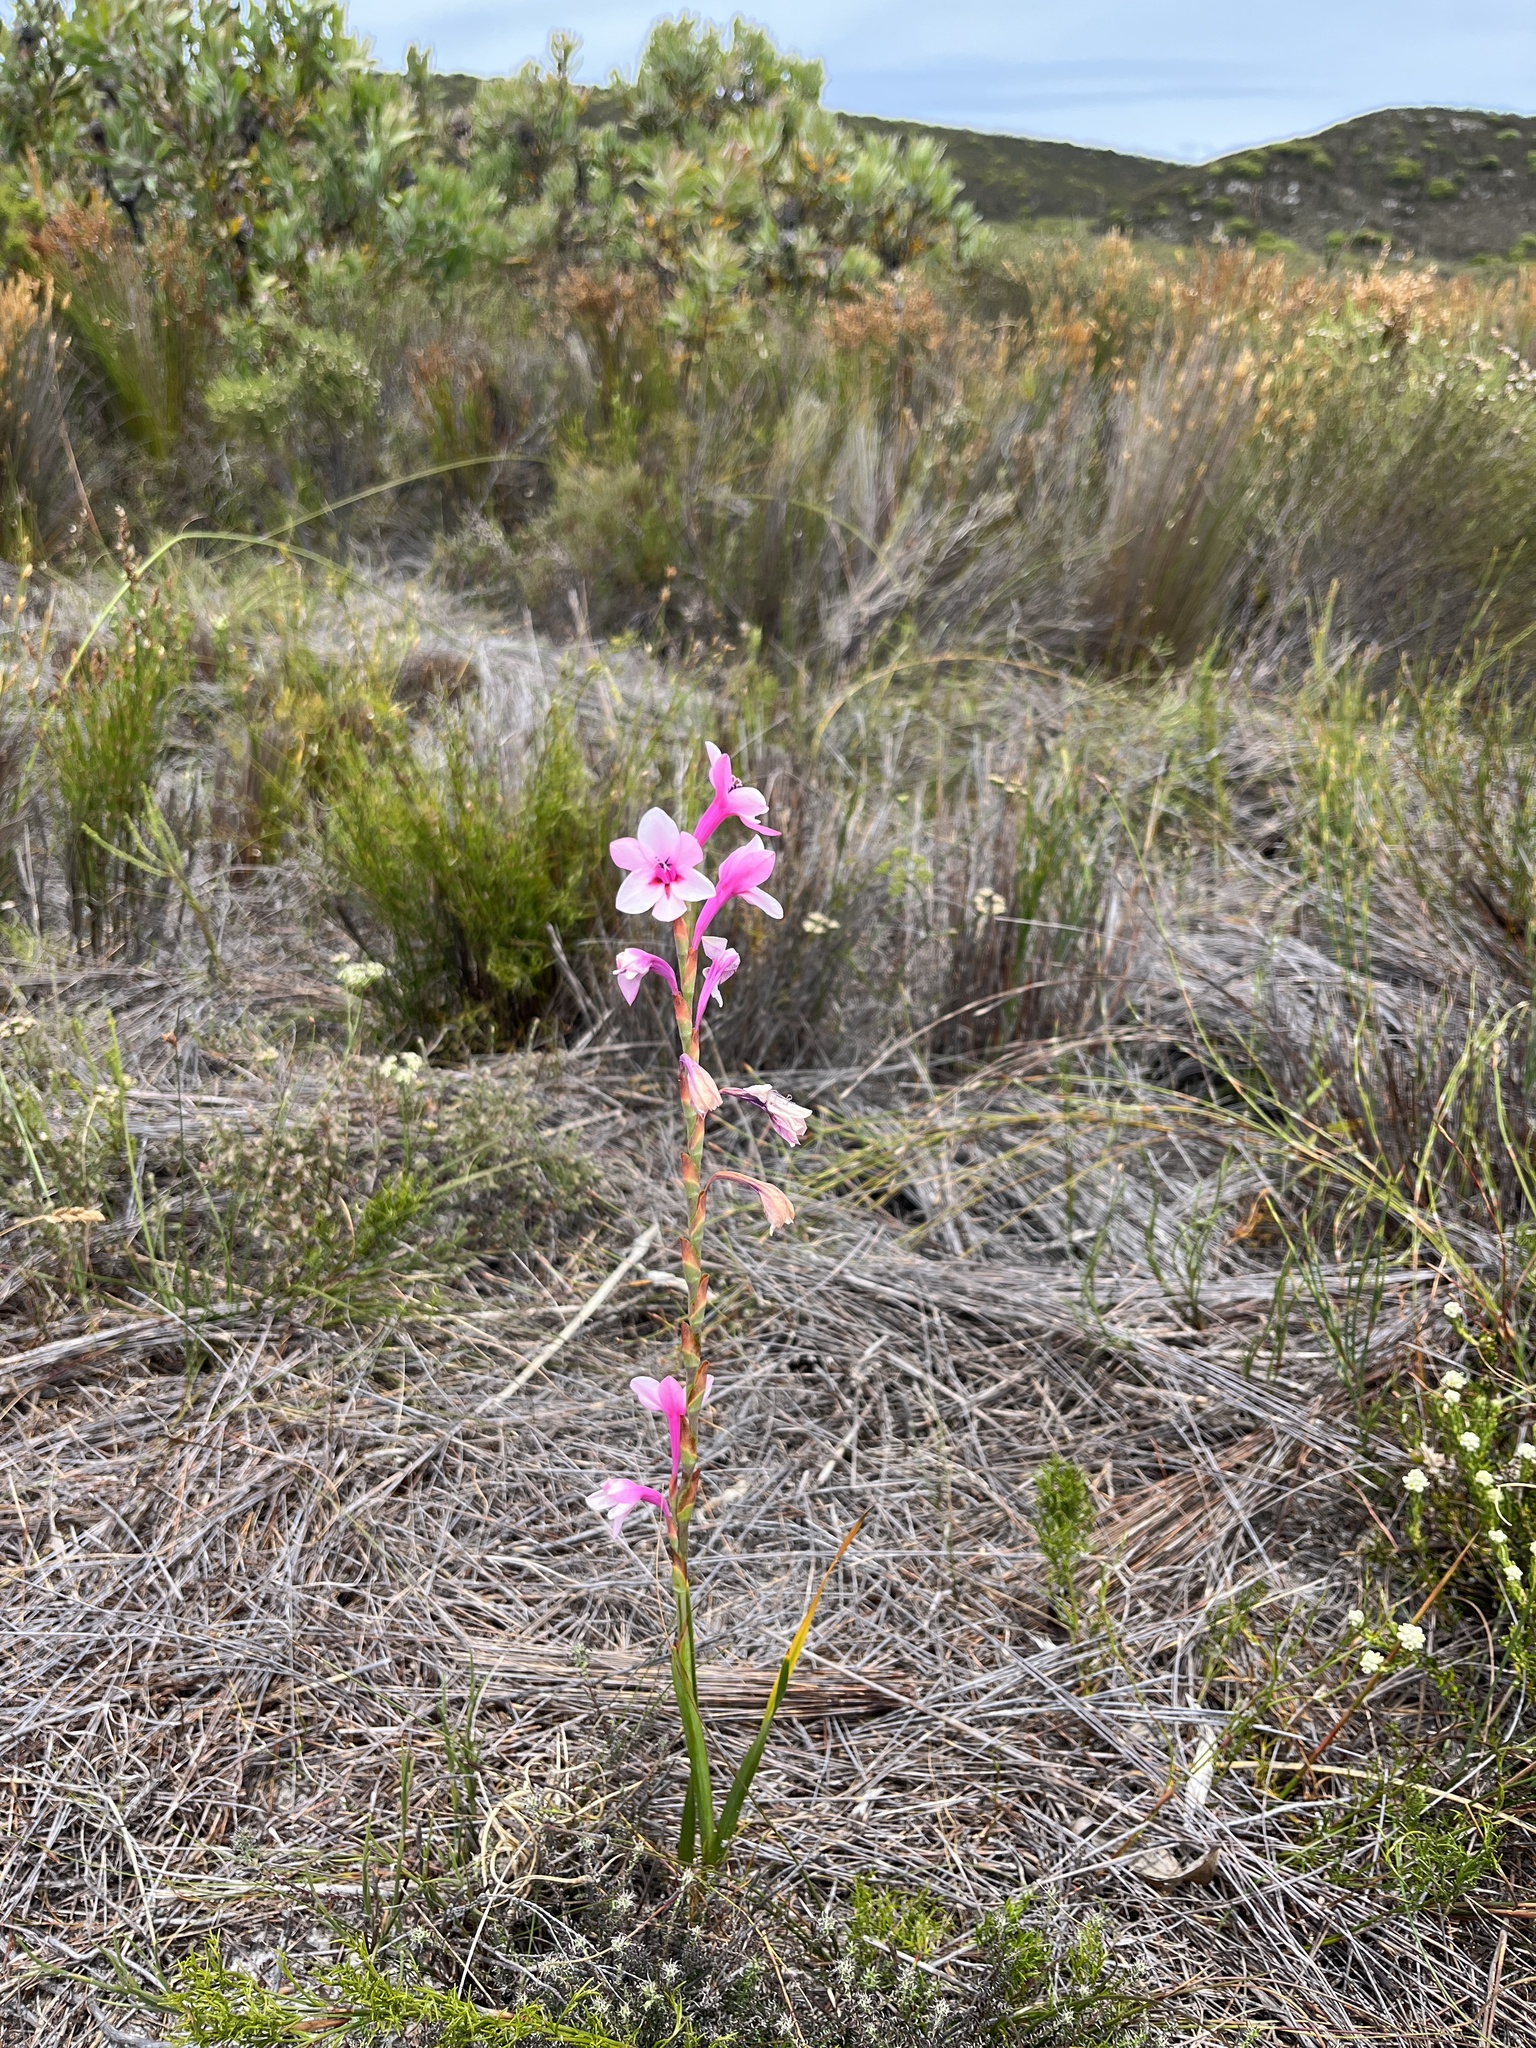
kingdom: Plantae
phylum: Tracheophyta
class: Liliopsida
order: Asparagales
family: Iridaceae
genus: Watsonia
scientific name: Watsonia zeyheri
